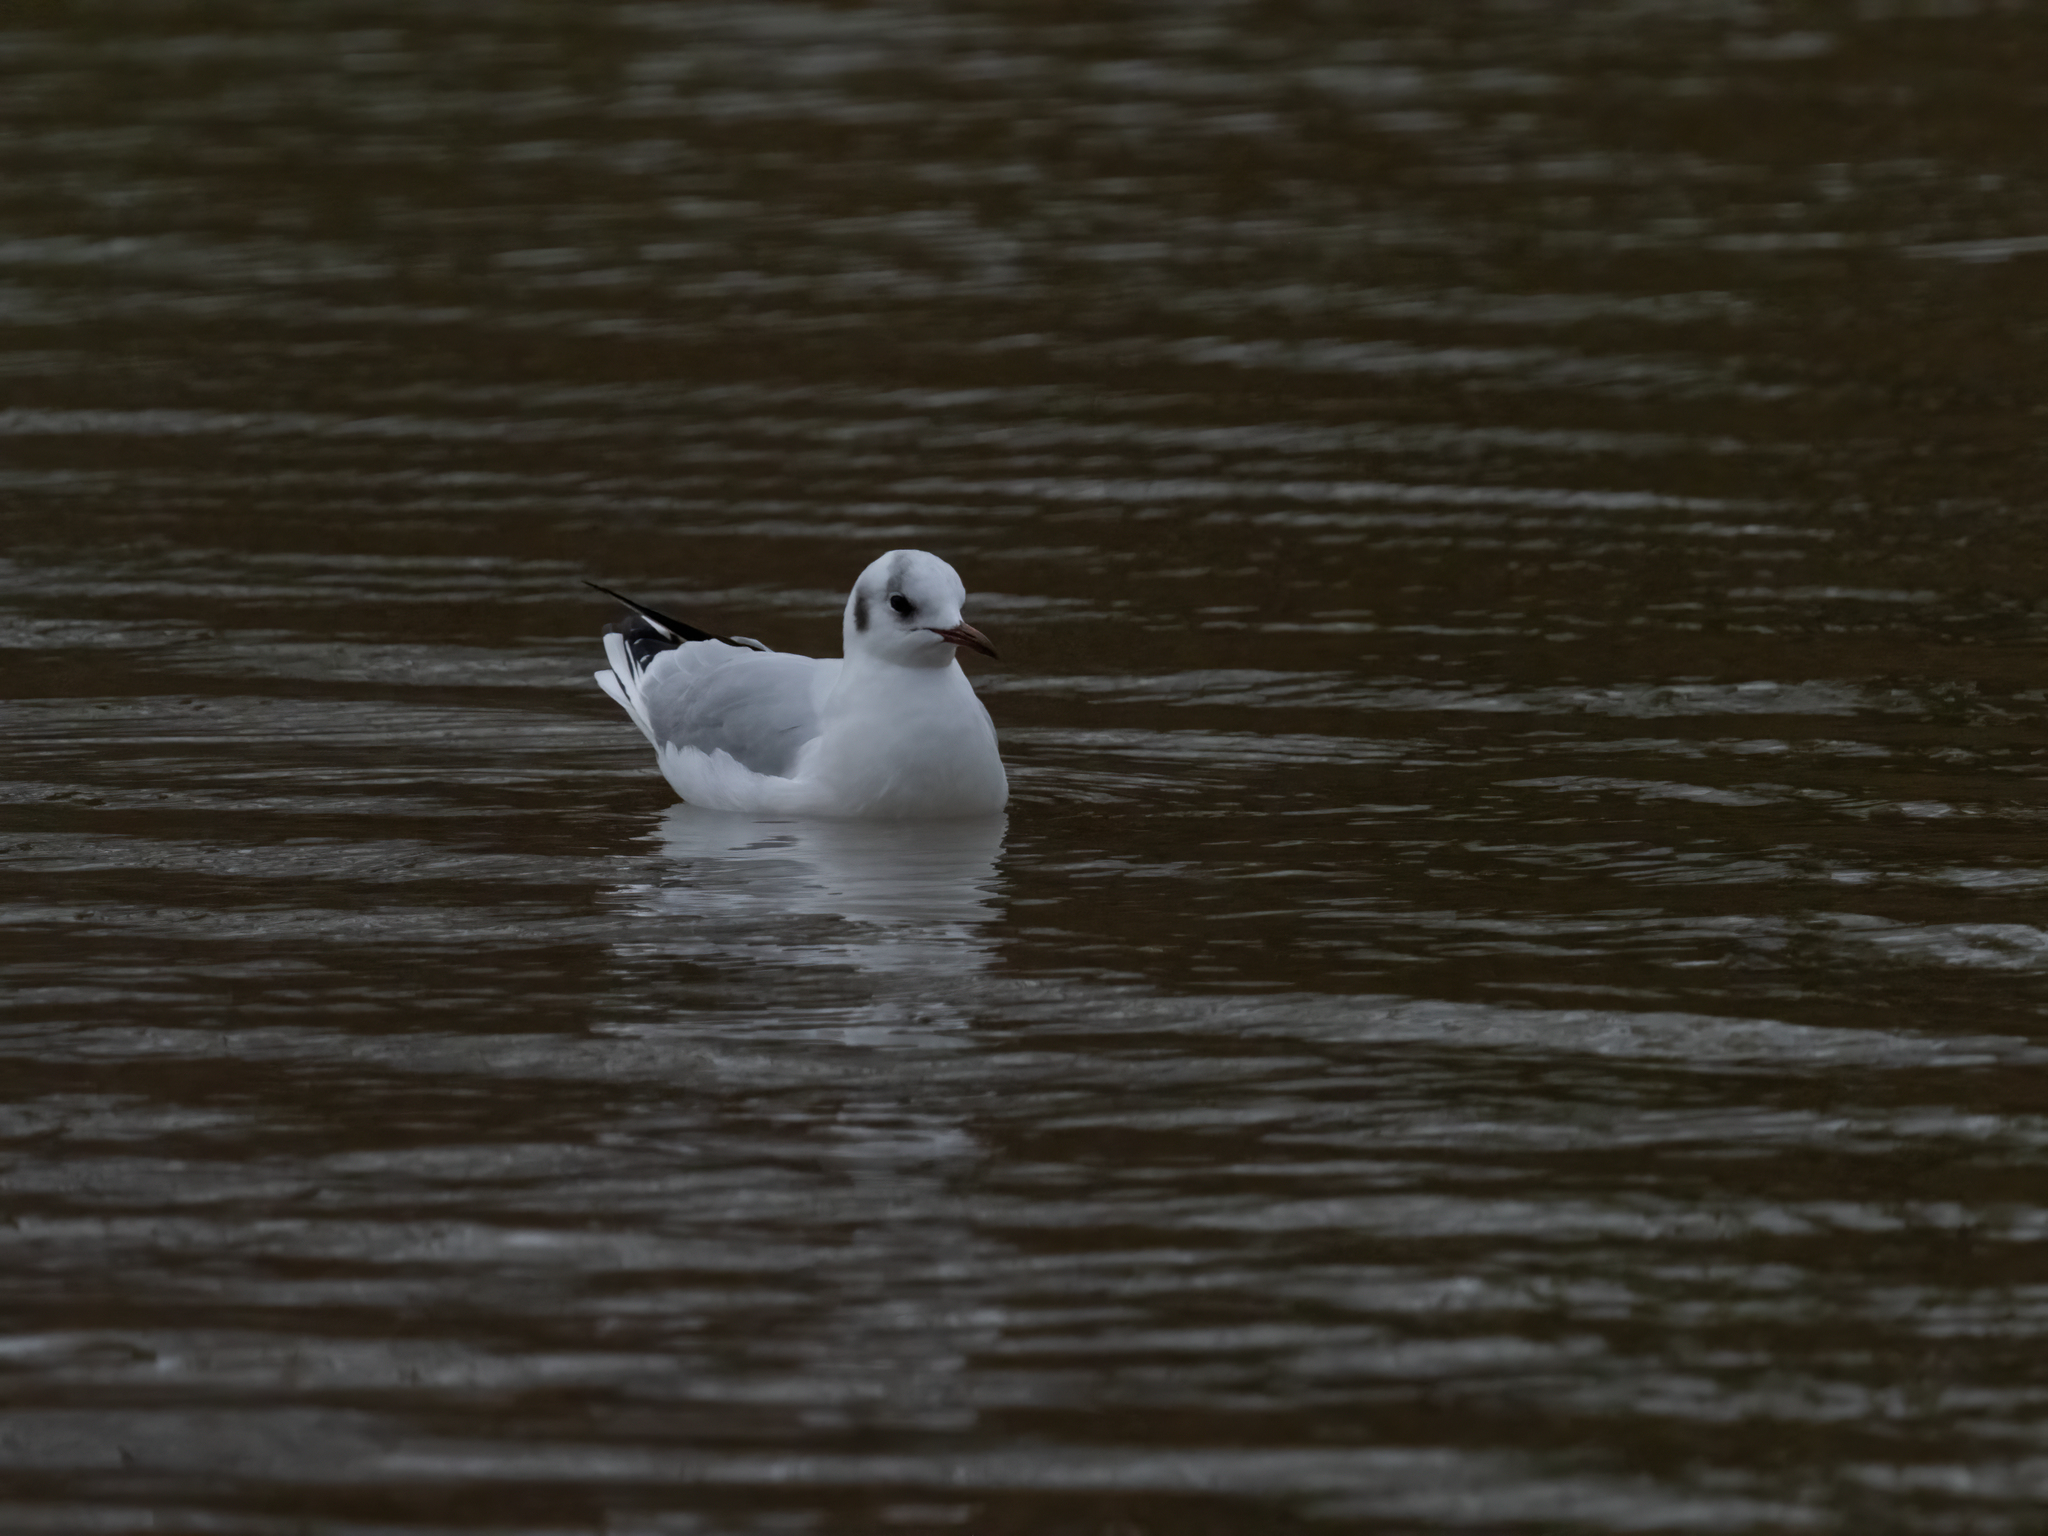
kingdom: Animalia
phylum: Chordata
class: Aves
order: Charadriiformes
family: Laridae
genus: Chroicocephalus
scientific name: Chroicocephalus ridibundus
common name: Black-headed gull
